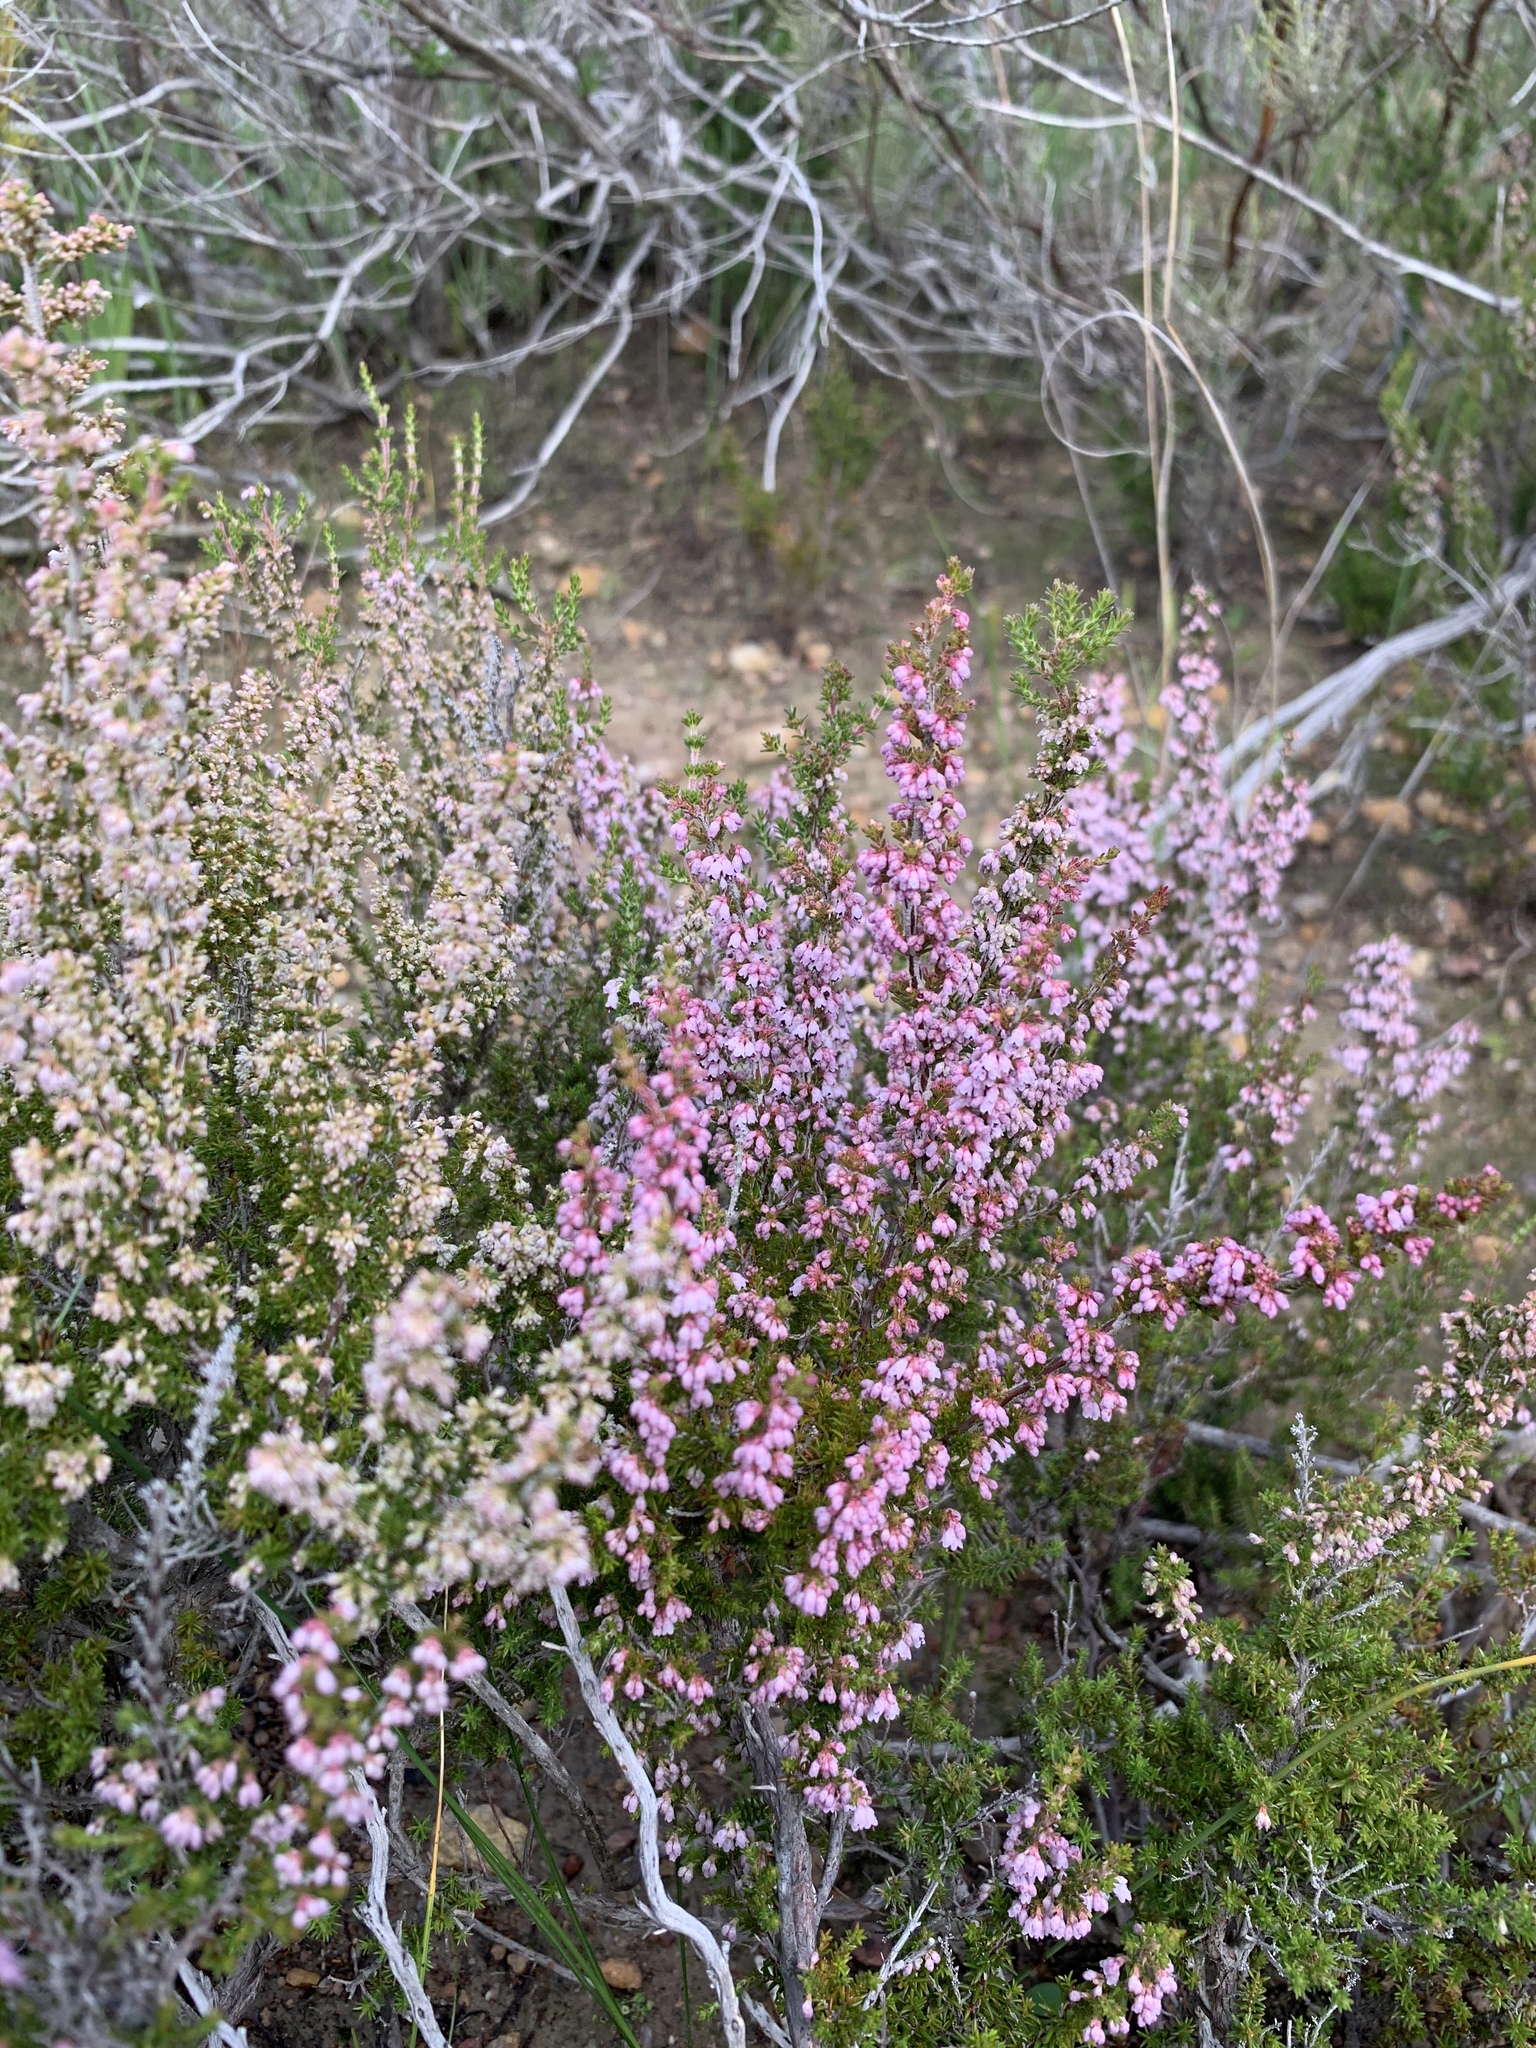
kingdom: Plantae
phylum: Tracheophyta
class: Magnoliopsida
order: Ericales
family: Ericaceae
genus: Erica
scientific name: Erica paniculata
